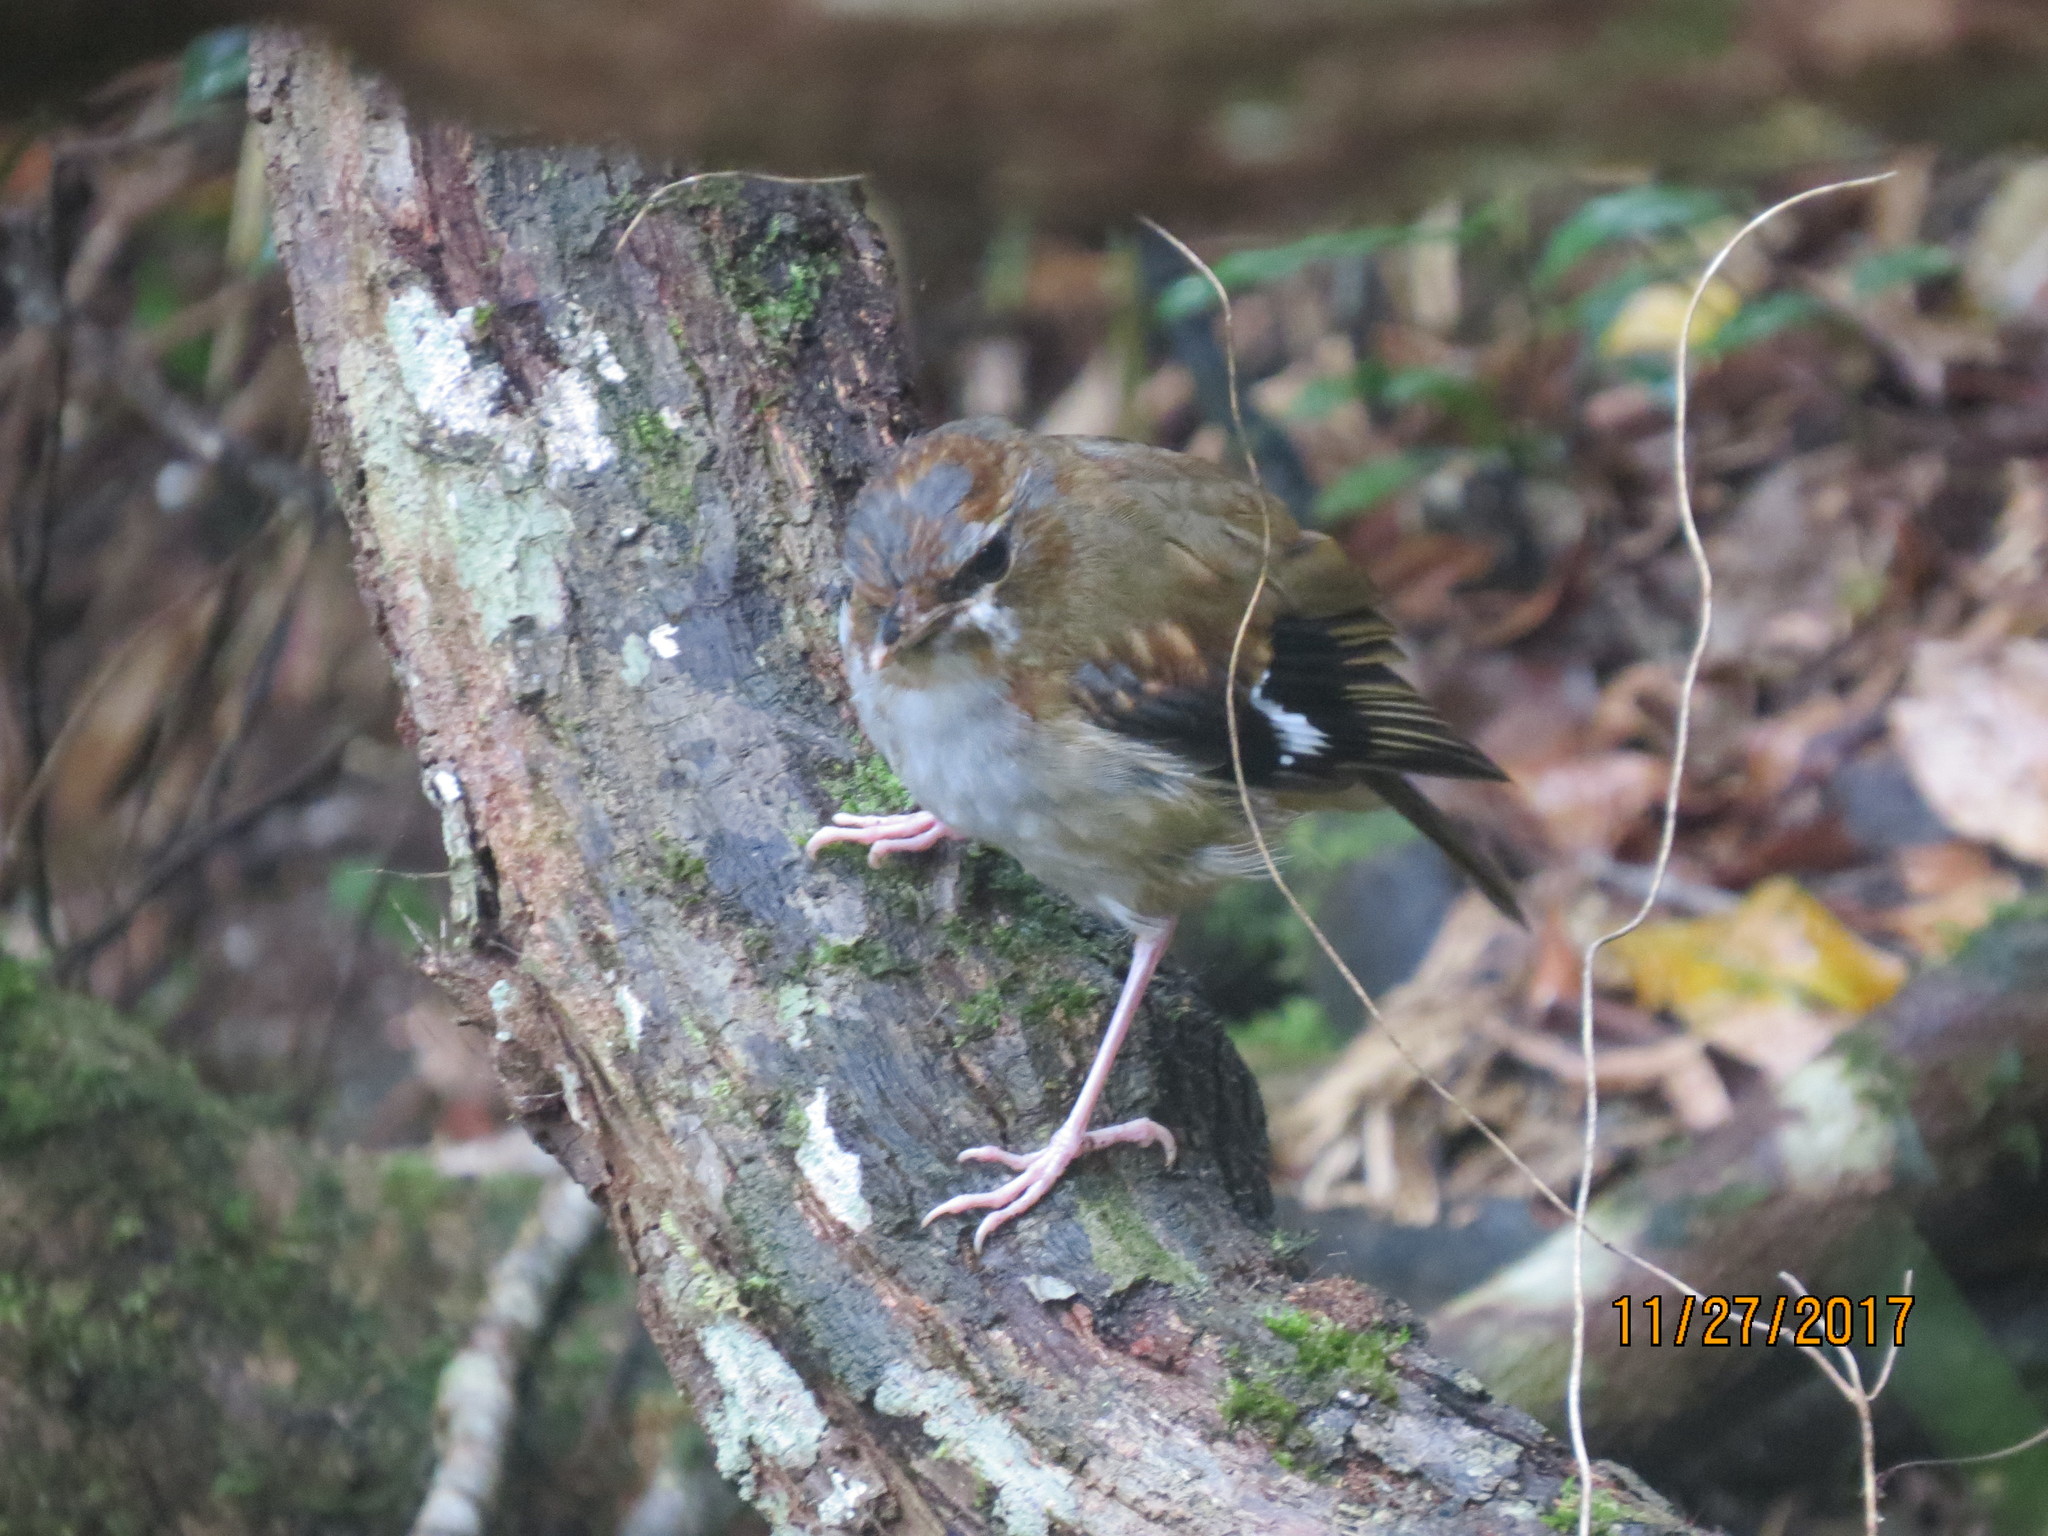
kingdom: Animalia
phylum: Chordata
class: Aves
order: Passeriformes
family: Petroicidae
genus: Heteromyias
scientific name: Heteromyias cinereifrons
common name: Grey-headed robin
